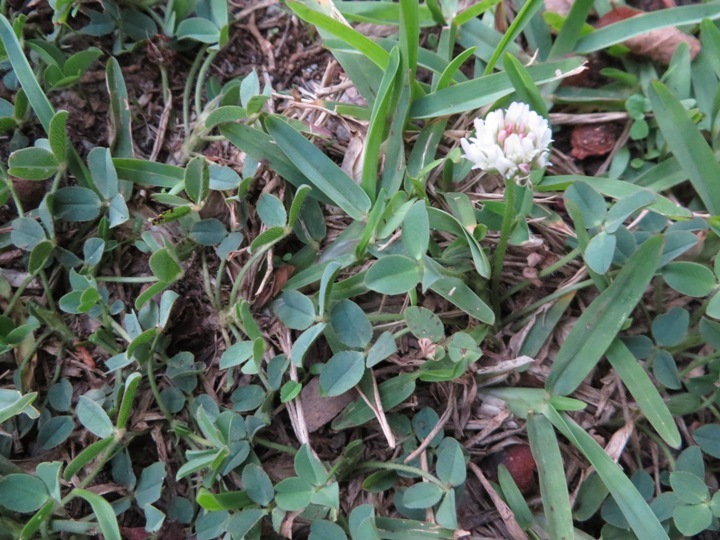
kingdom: Plantae
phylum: Tracheophyta
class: Magnoliopsida
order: Fabales
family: Fabaceae
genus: Trifolium
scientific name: Trifolium repens
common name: White clover
